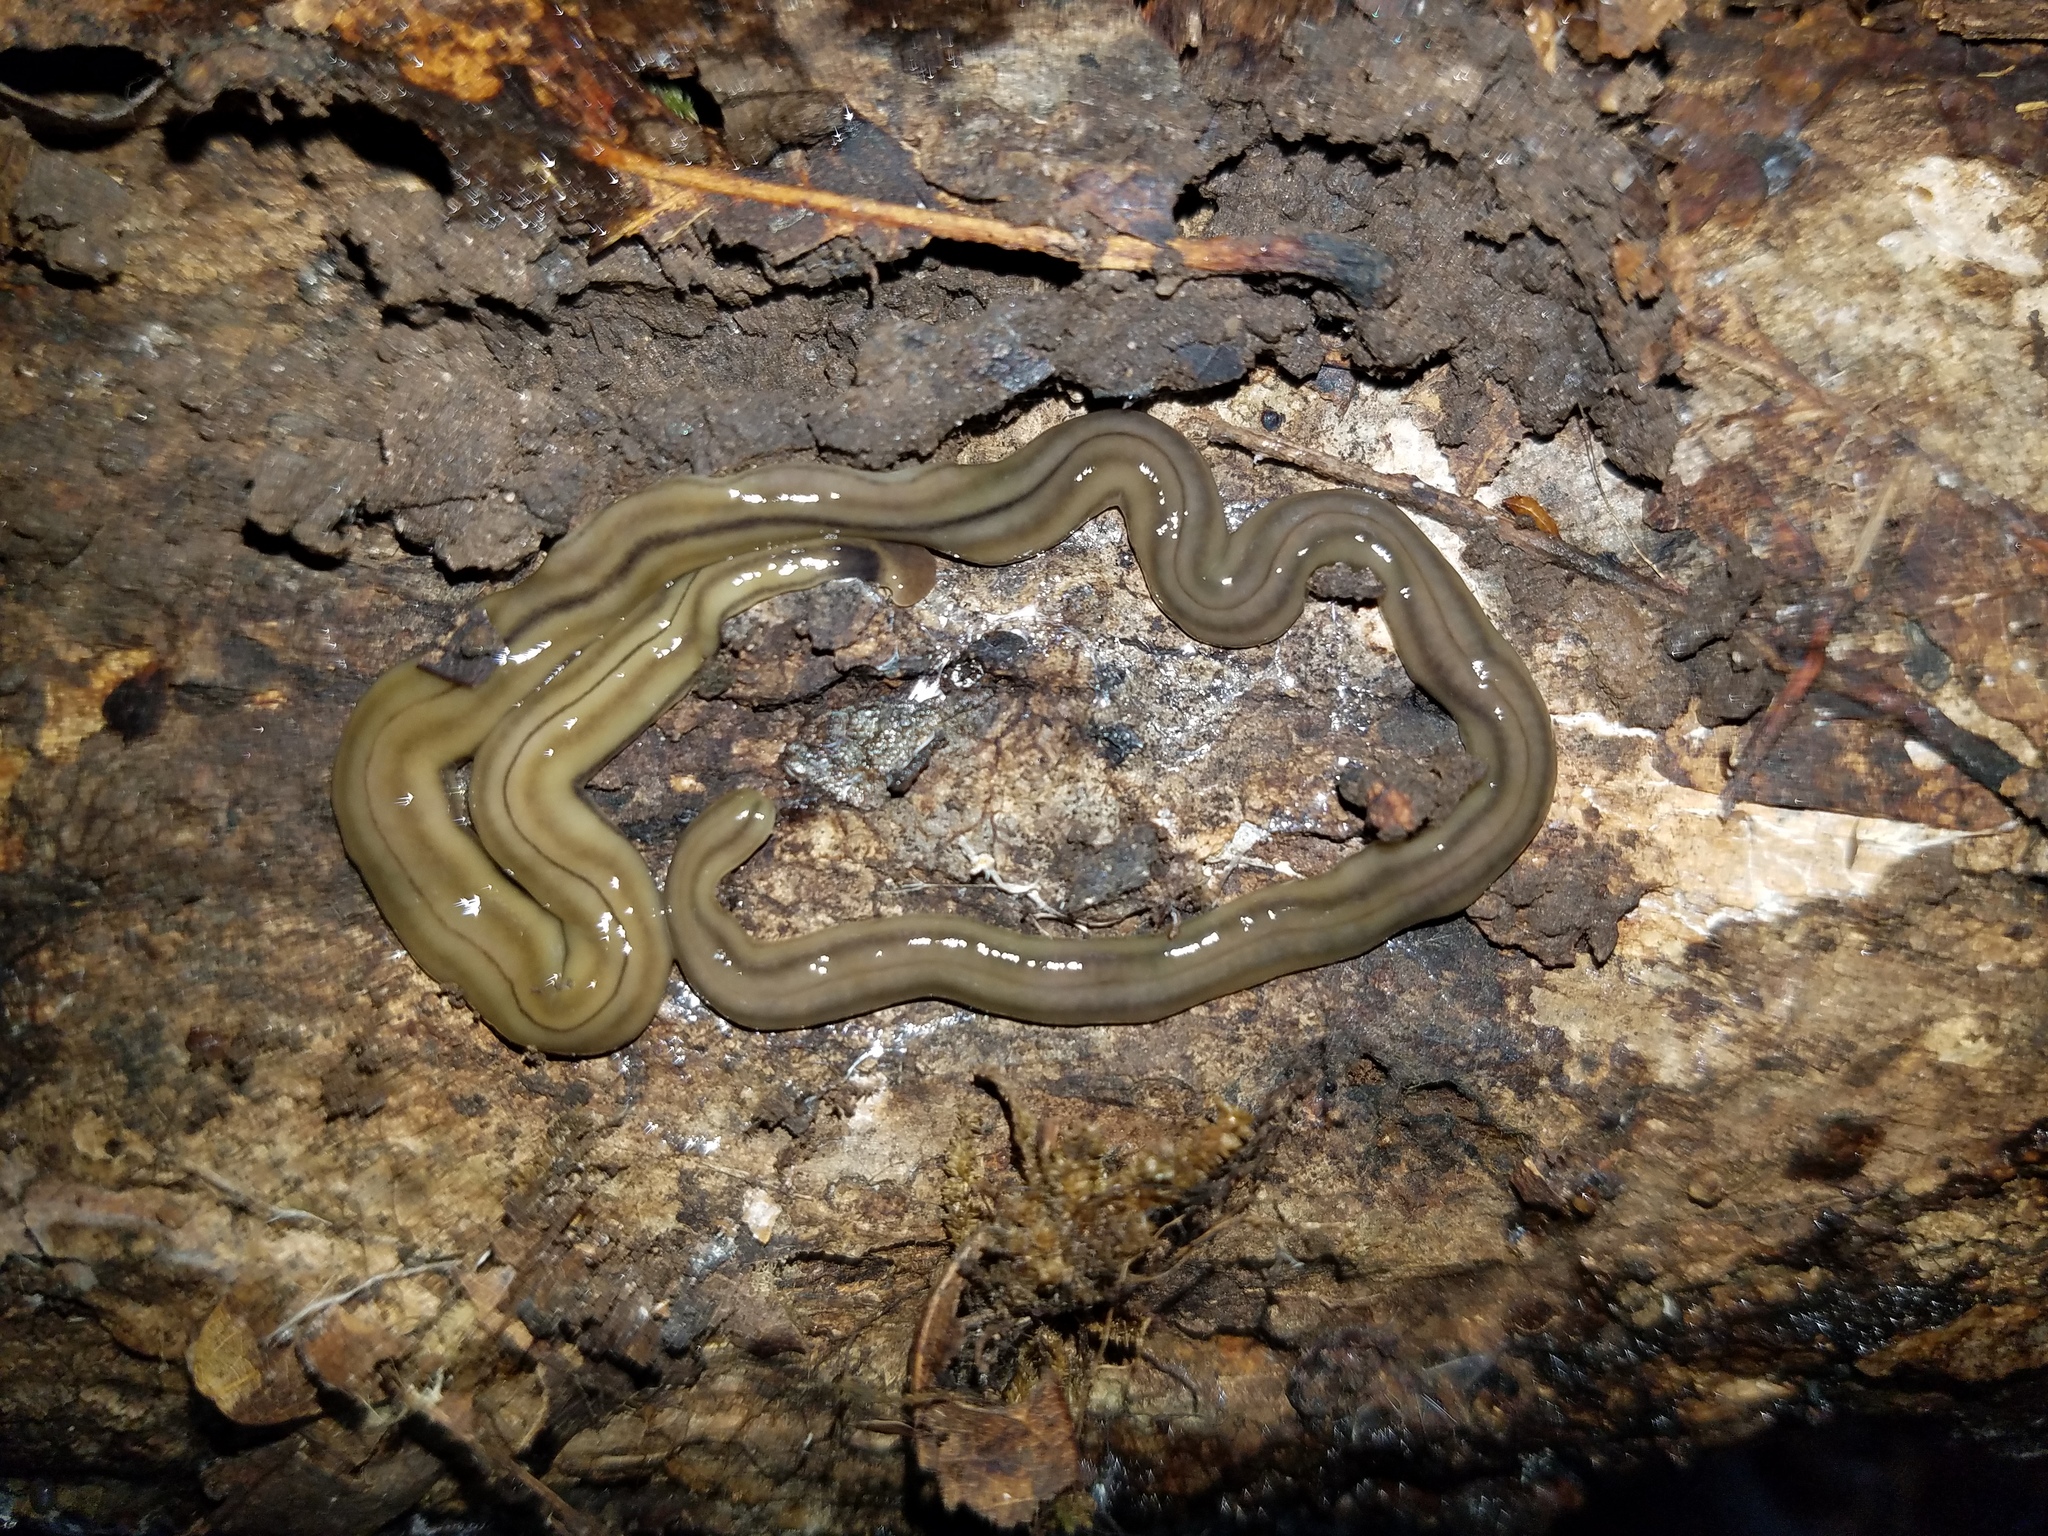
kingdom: Animalia
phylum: Platyhelminthes
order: Tricladida
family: Geoplanidae
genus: Bipalium
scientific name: Bipalium kewense
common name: Hammerhead flatworm
